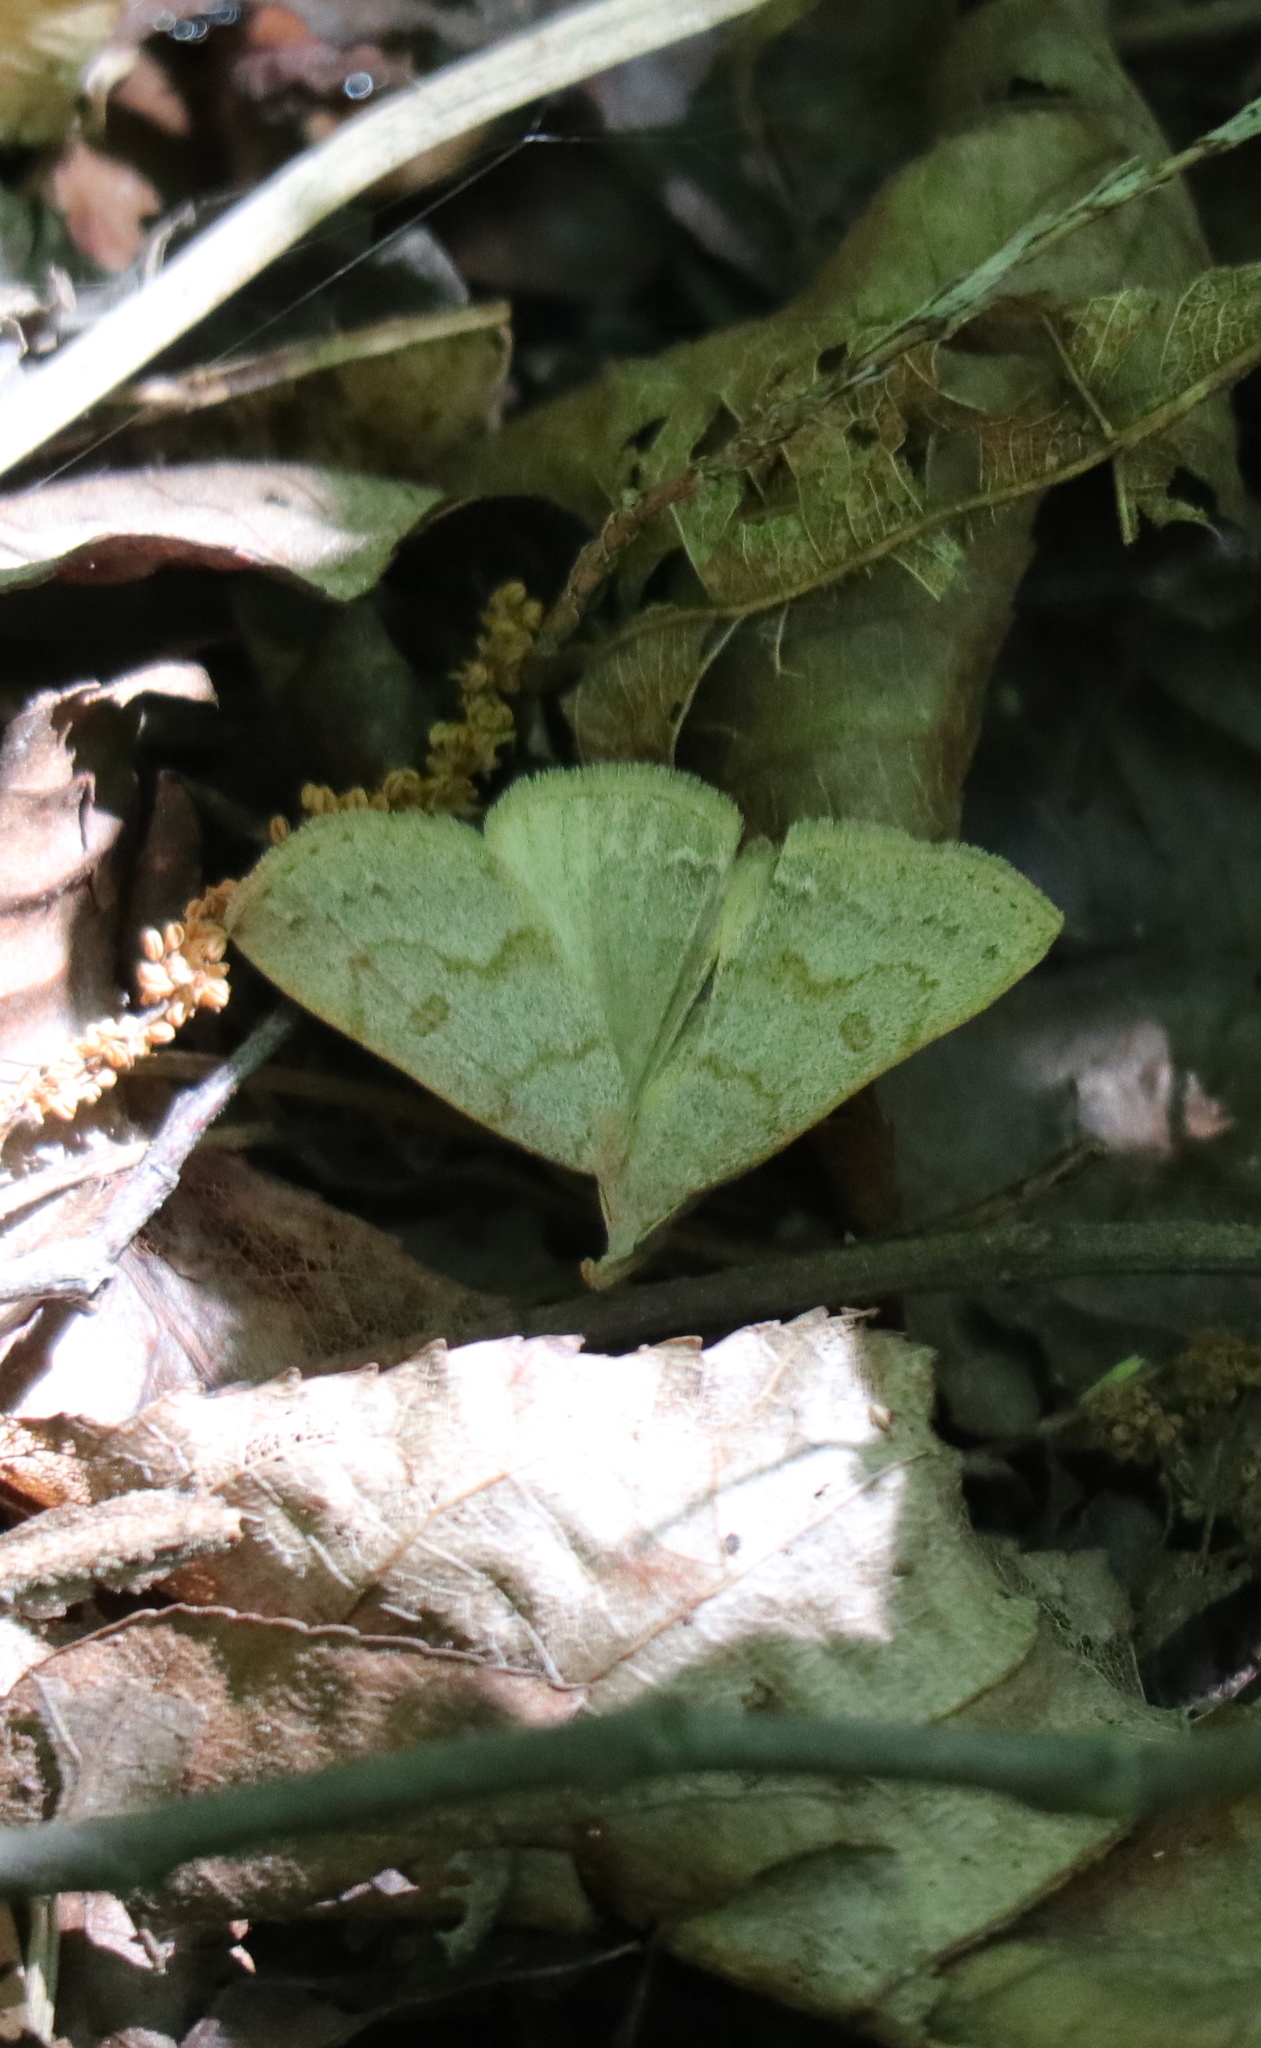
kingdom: Animalia
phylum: Arthropoda
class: Insecta
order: Lepidoptera
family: Erebidae
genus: Macrochilo
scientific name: Macrochilo morbidalis
